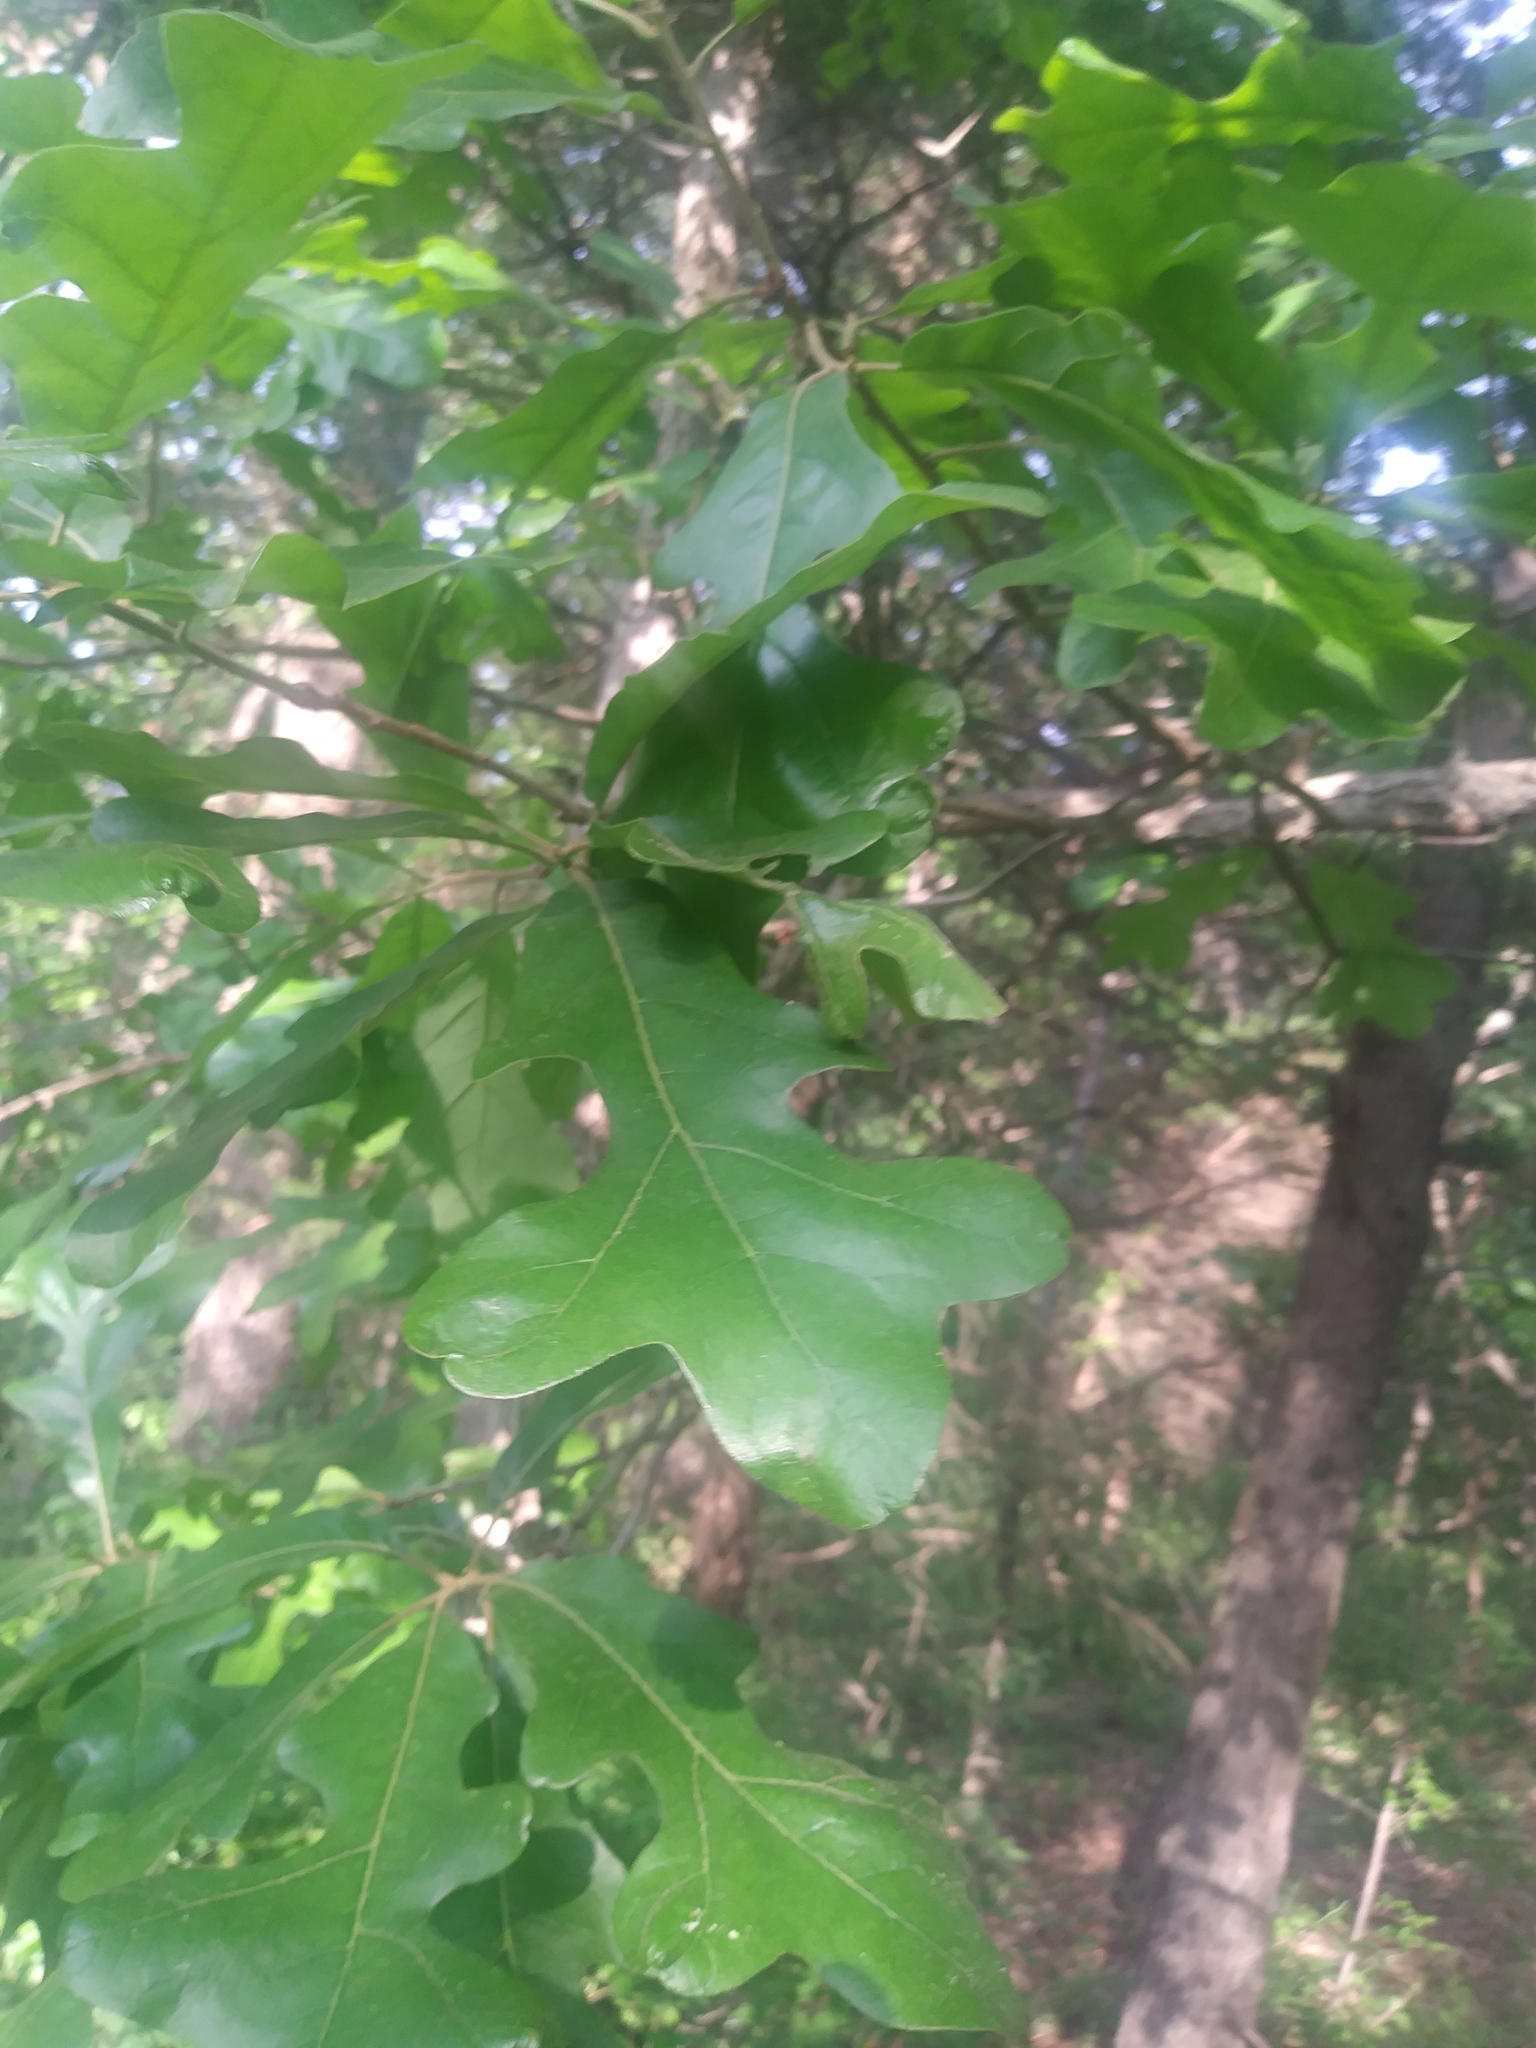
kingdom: Plantae
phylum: Tracheophyta
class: Magnoliopsida
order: Fagales
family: Fagaceae
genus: Quercus
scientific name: Quercus stellata
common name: Post oak
